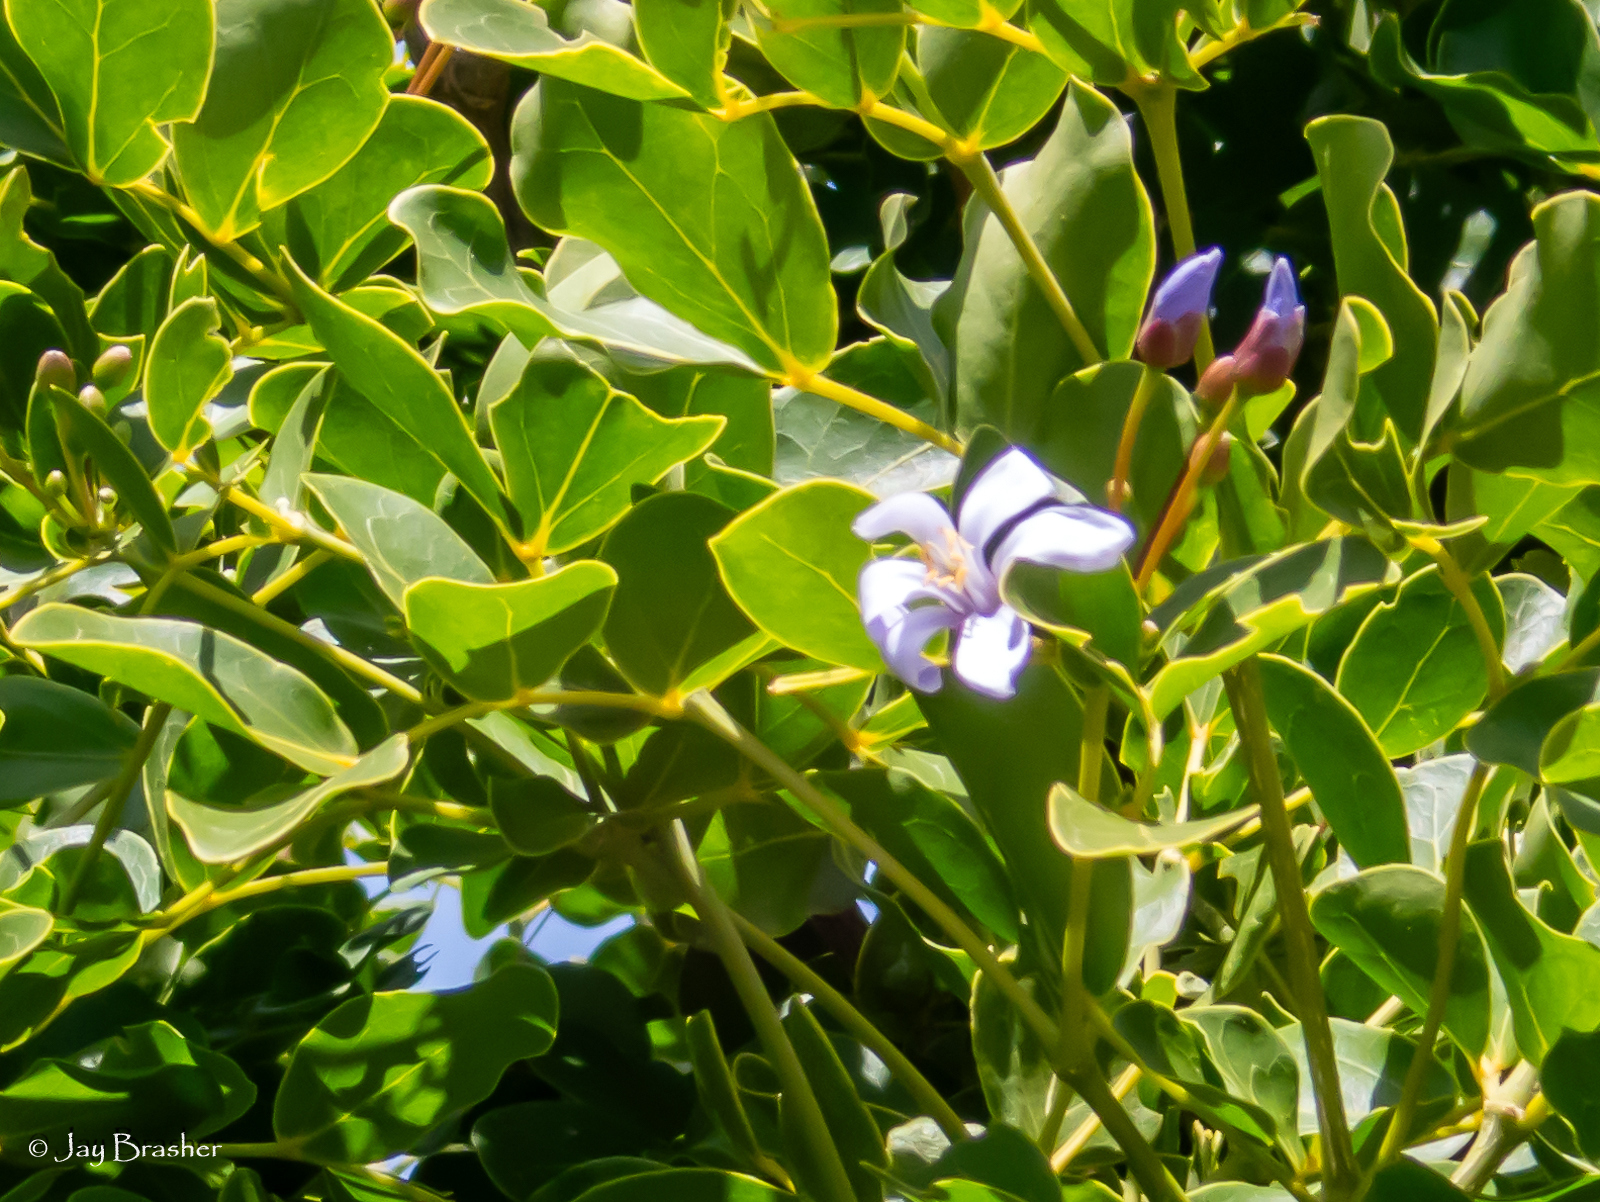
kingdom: Plantae
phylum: Tracheophyta
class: Magnoliopsida
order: Zygophyllales
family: Zygophyllaceae
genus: Guaiacum
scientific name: Guaiacum officinale
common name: Lignum vitae
